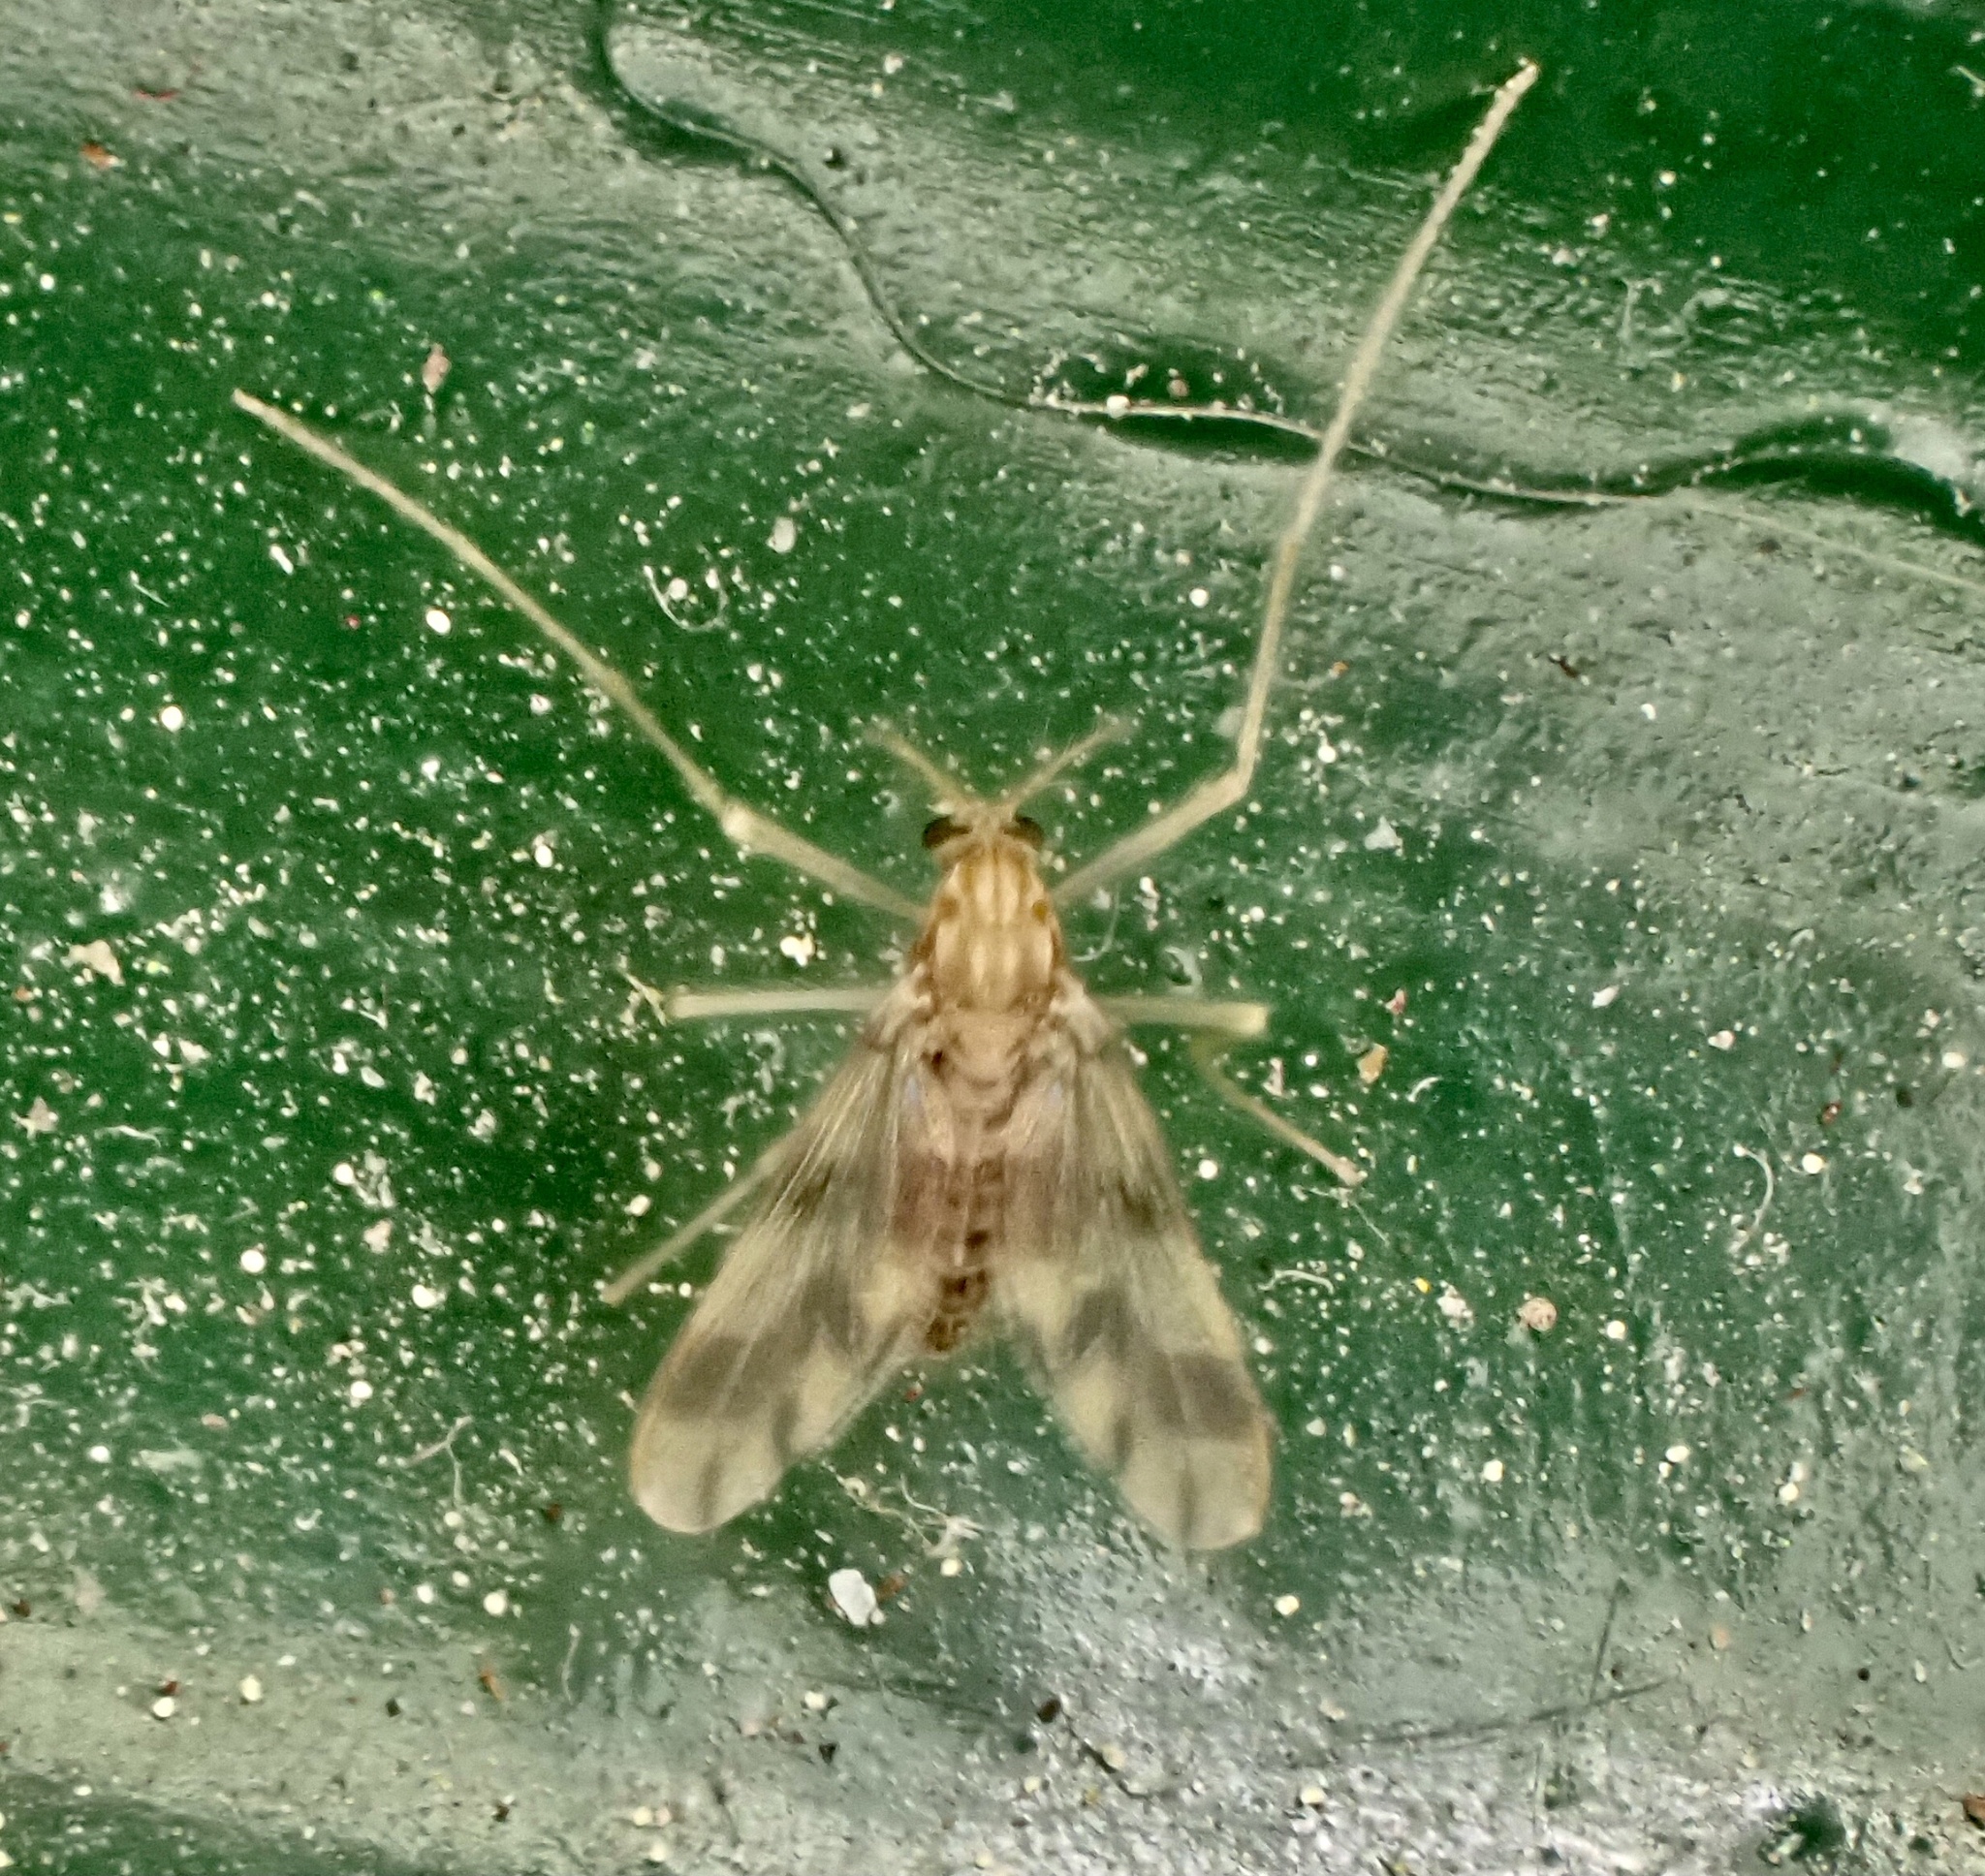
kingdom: Animalia
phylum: Arthropoda
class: Insecta
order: Diptera
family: Chironomidae
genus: Zavrelimyia
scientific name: Zavrelimyia sinuosa
